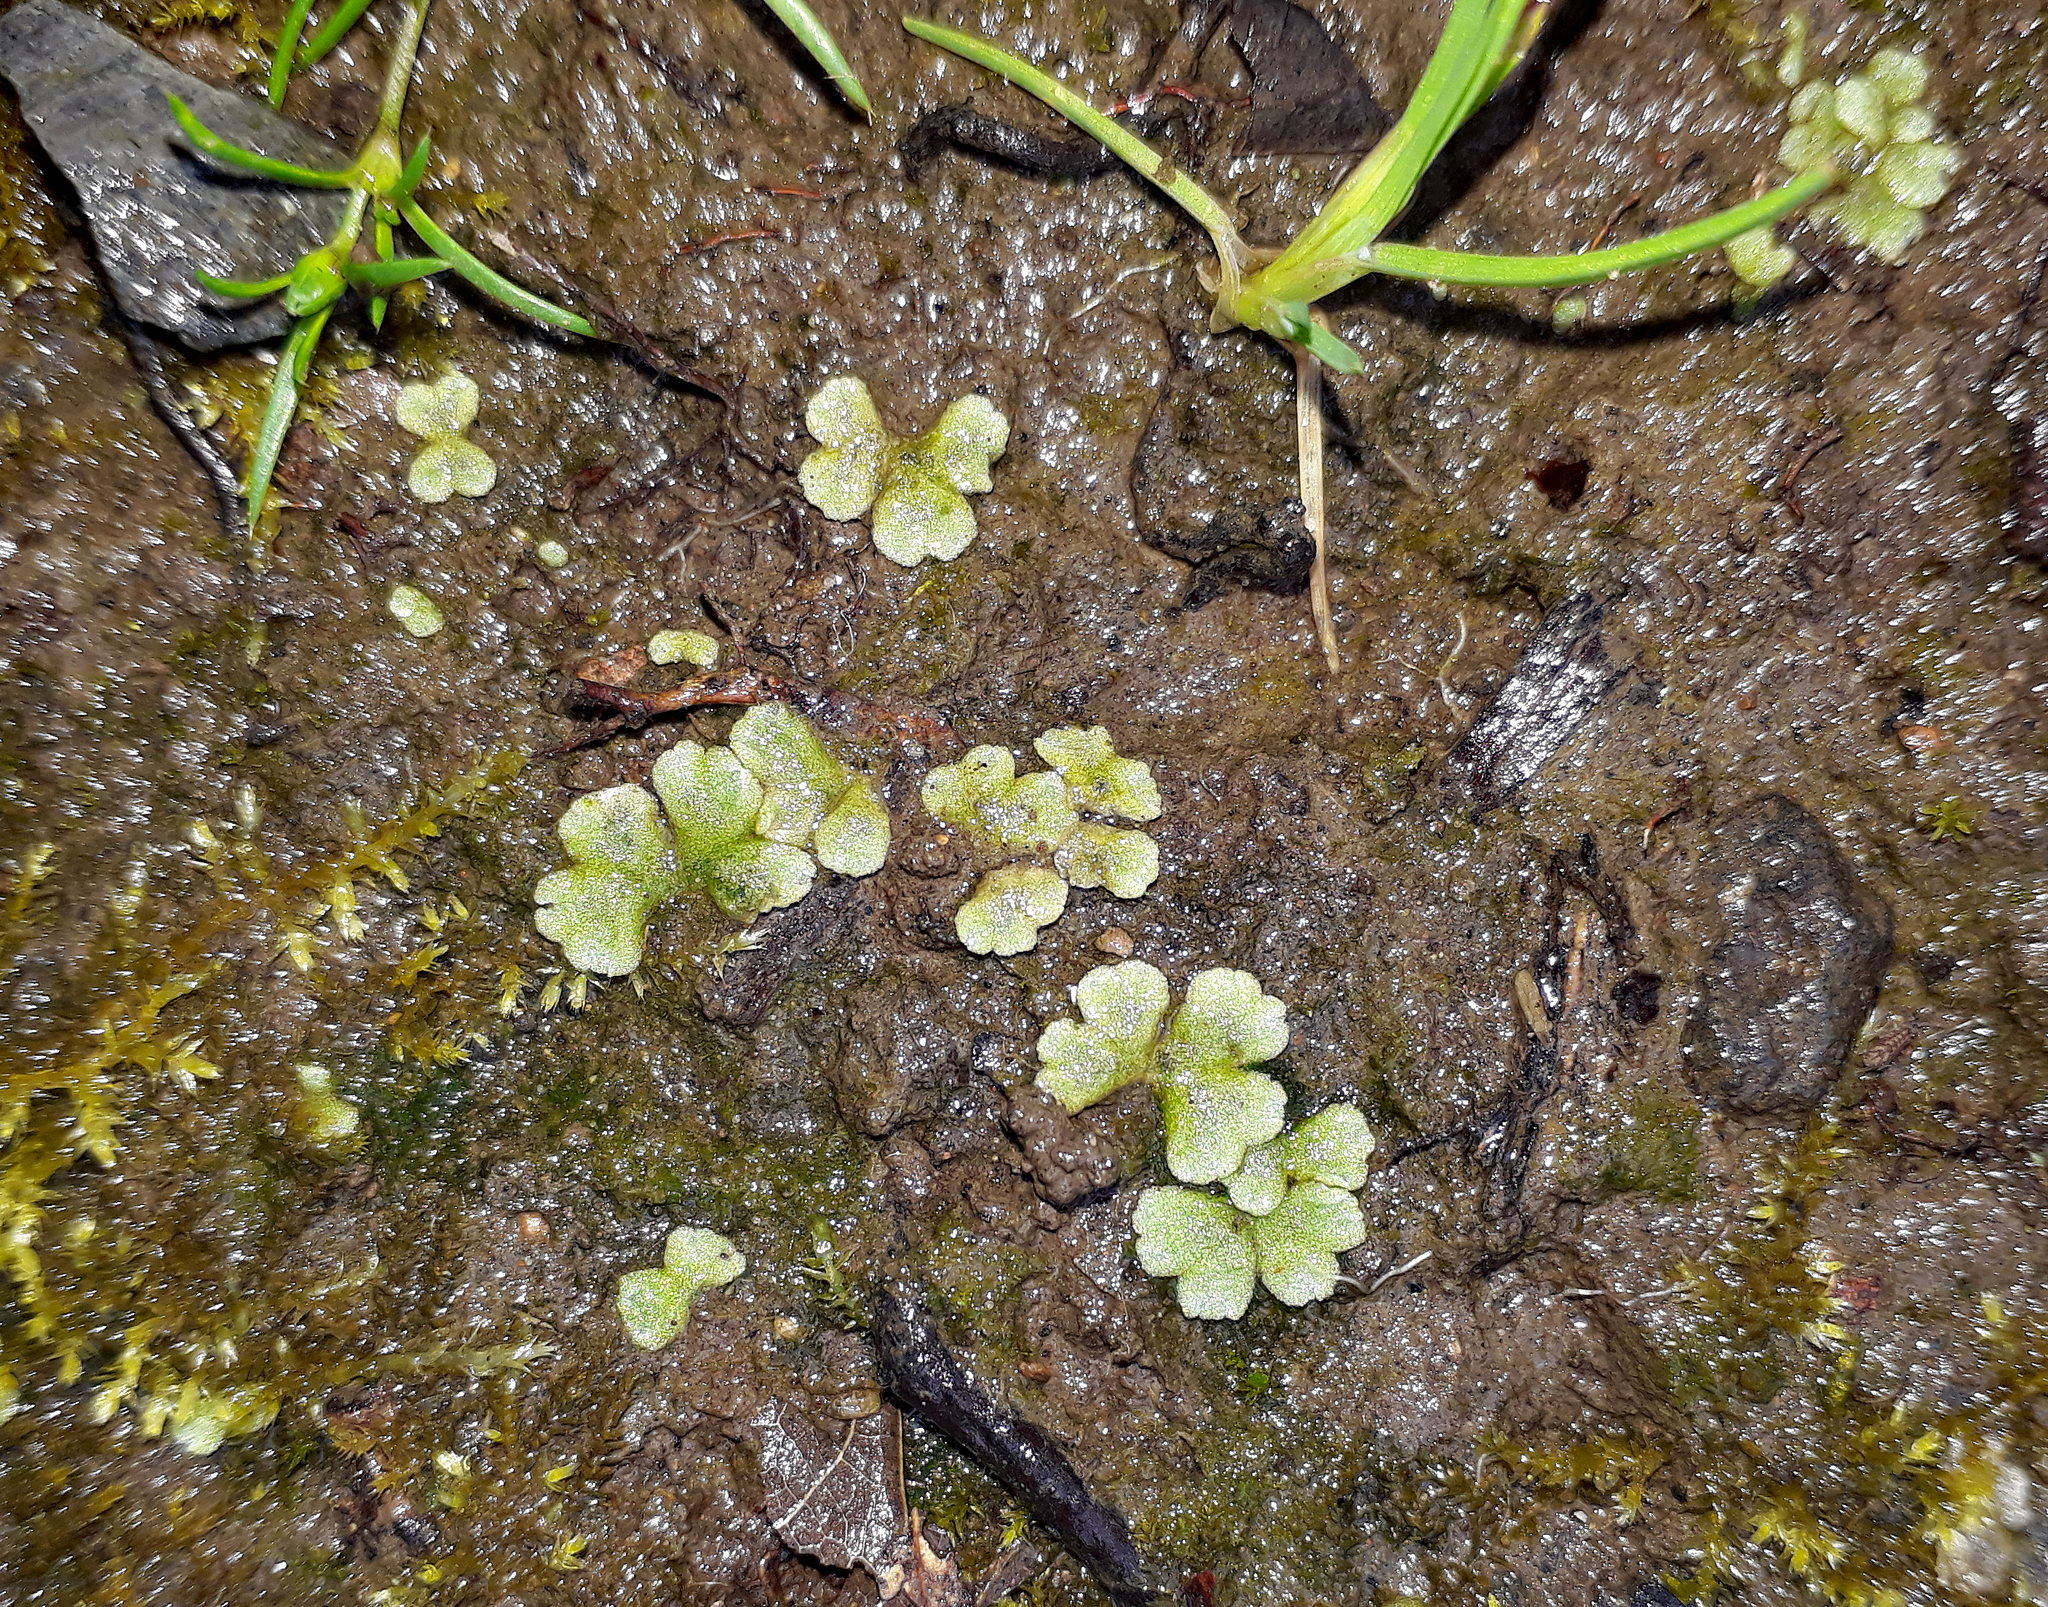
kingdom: Plantae
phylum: Marchantiophyta
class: Marchantiopsida
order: Marchantiales
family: Ricciaceae
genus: Riccia
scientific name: Riccia crystallina
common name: Blue crystalwort
